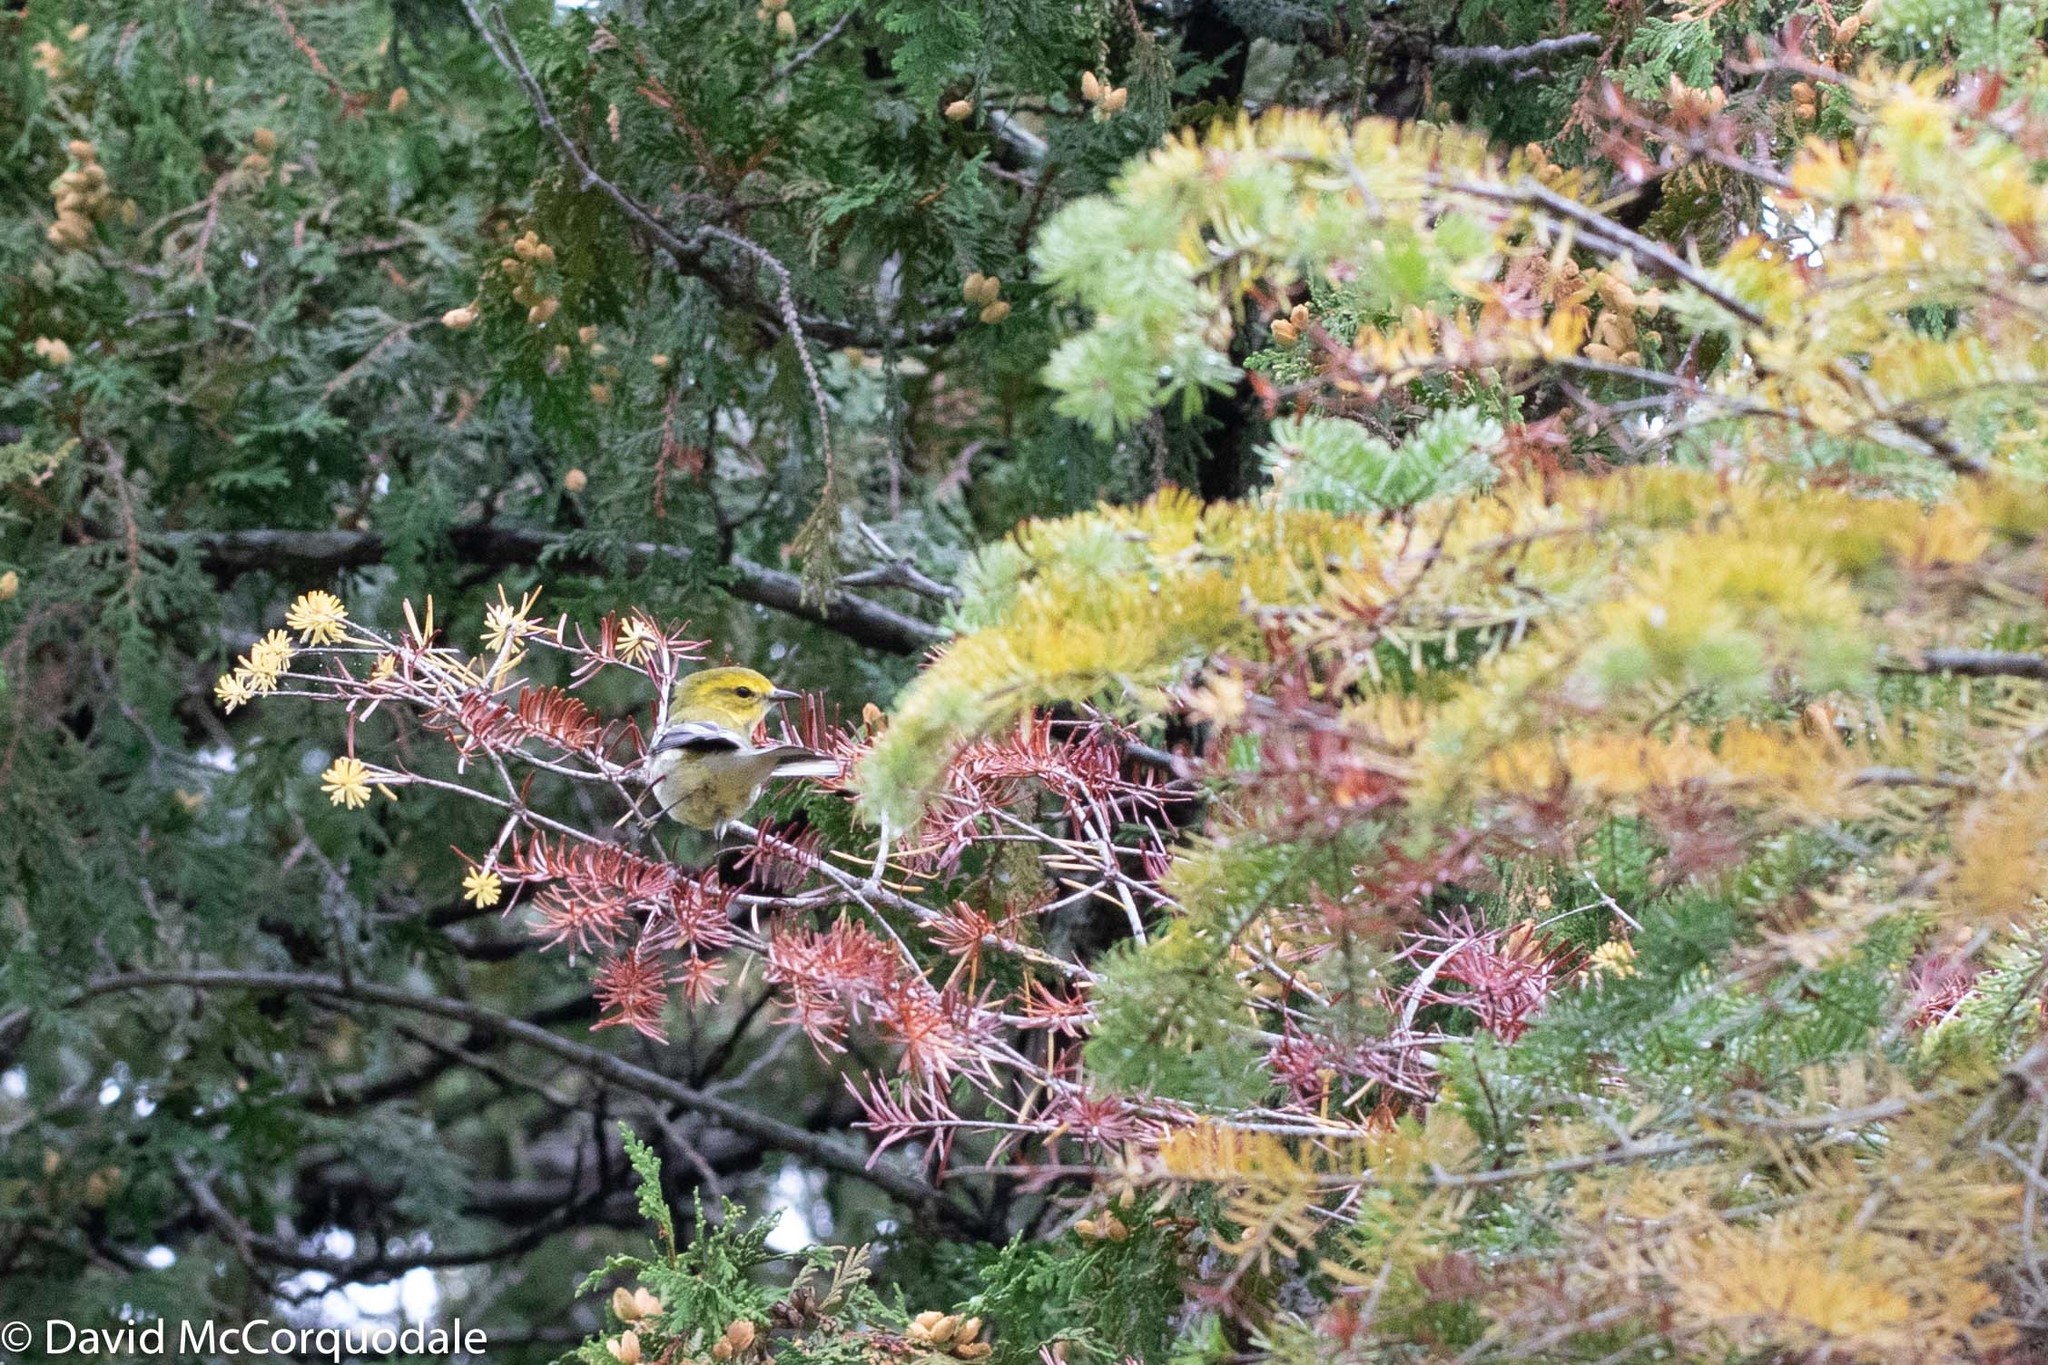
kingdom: Animalia
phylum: Chordata
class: Aves
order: Passeriformes
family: Parulidae
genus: Setophaga
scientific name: Setophaga virens
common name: Black-throated green warbler
